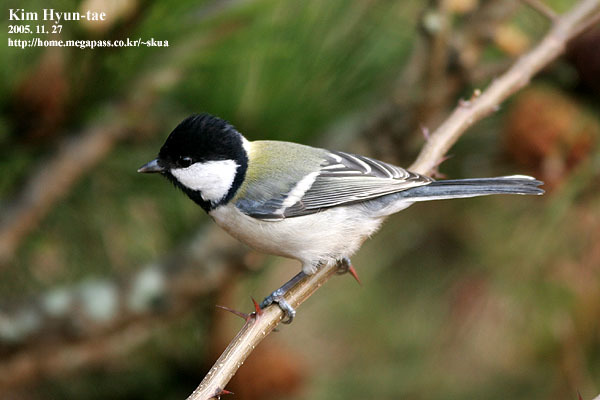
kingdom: Animalia
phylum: Chordata
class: Aves
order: Passeriformes
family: Paridae
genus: Parus
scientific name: Parus minor
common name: Japanese tit
